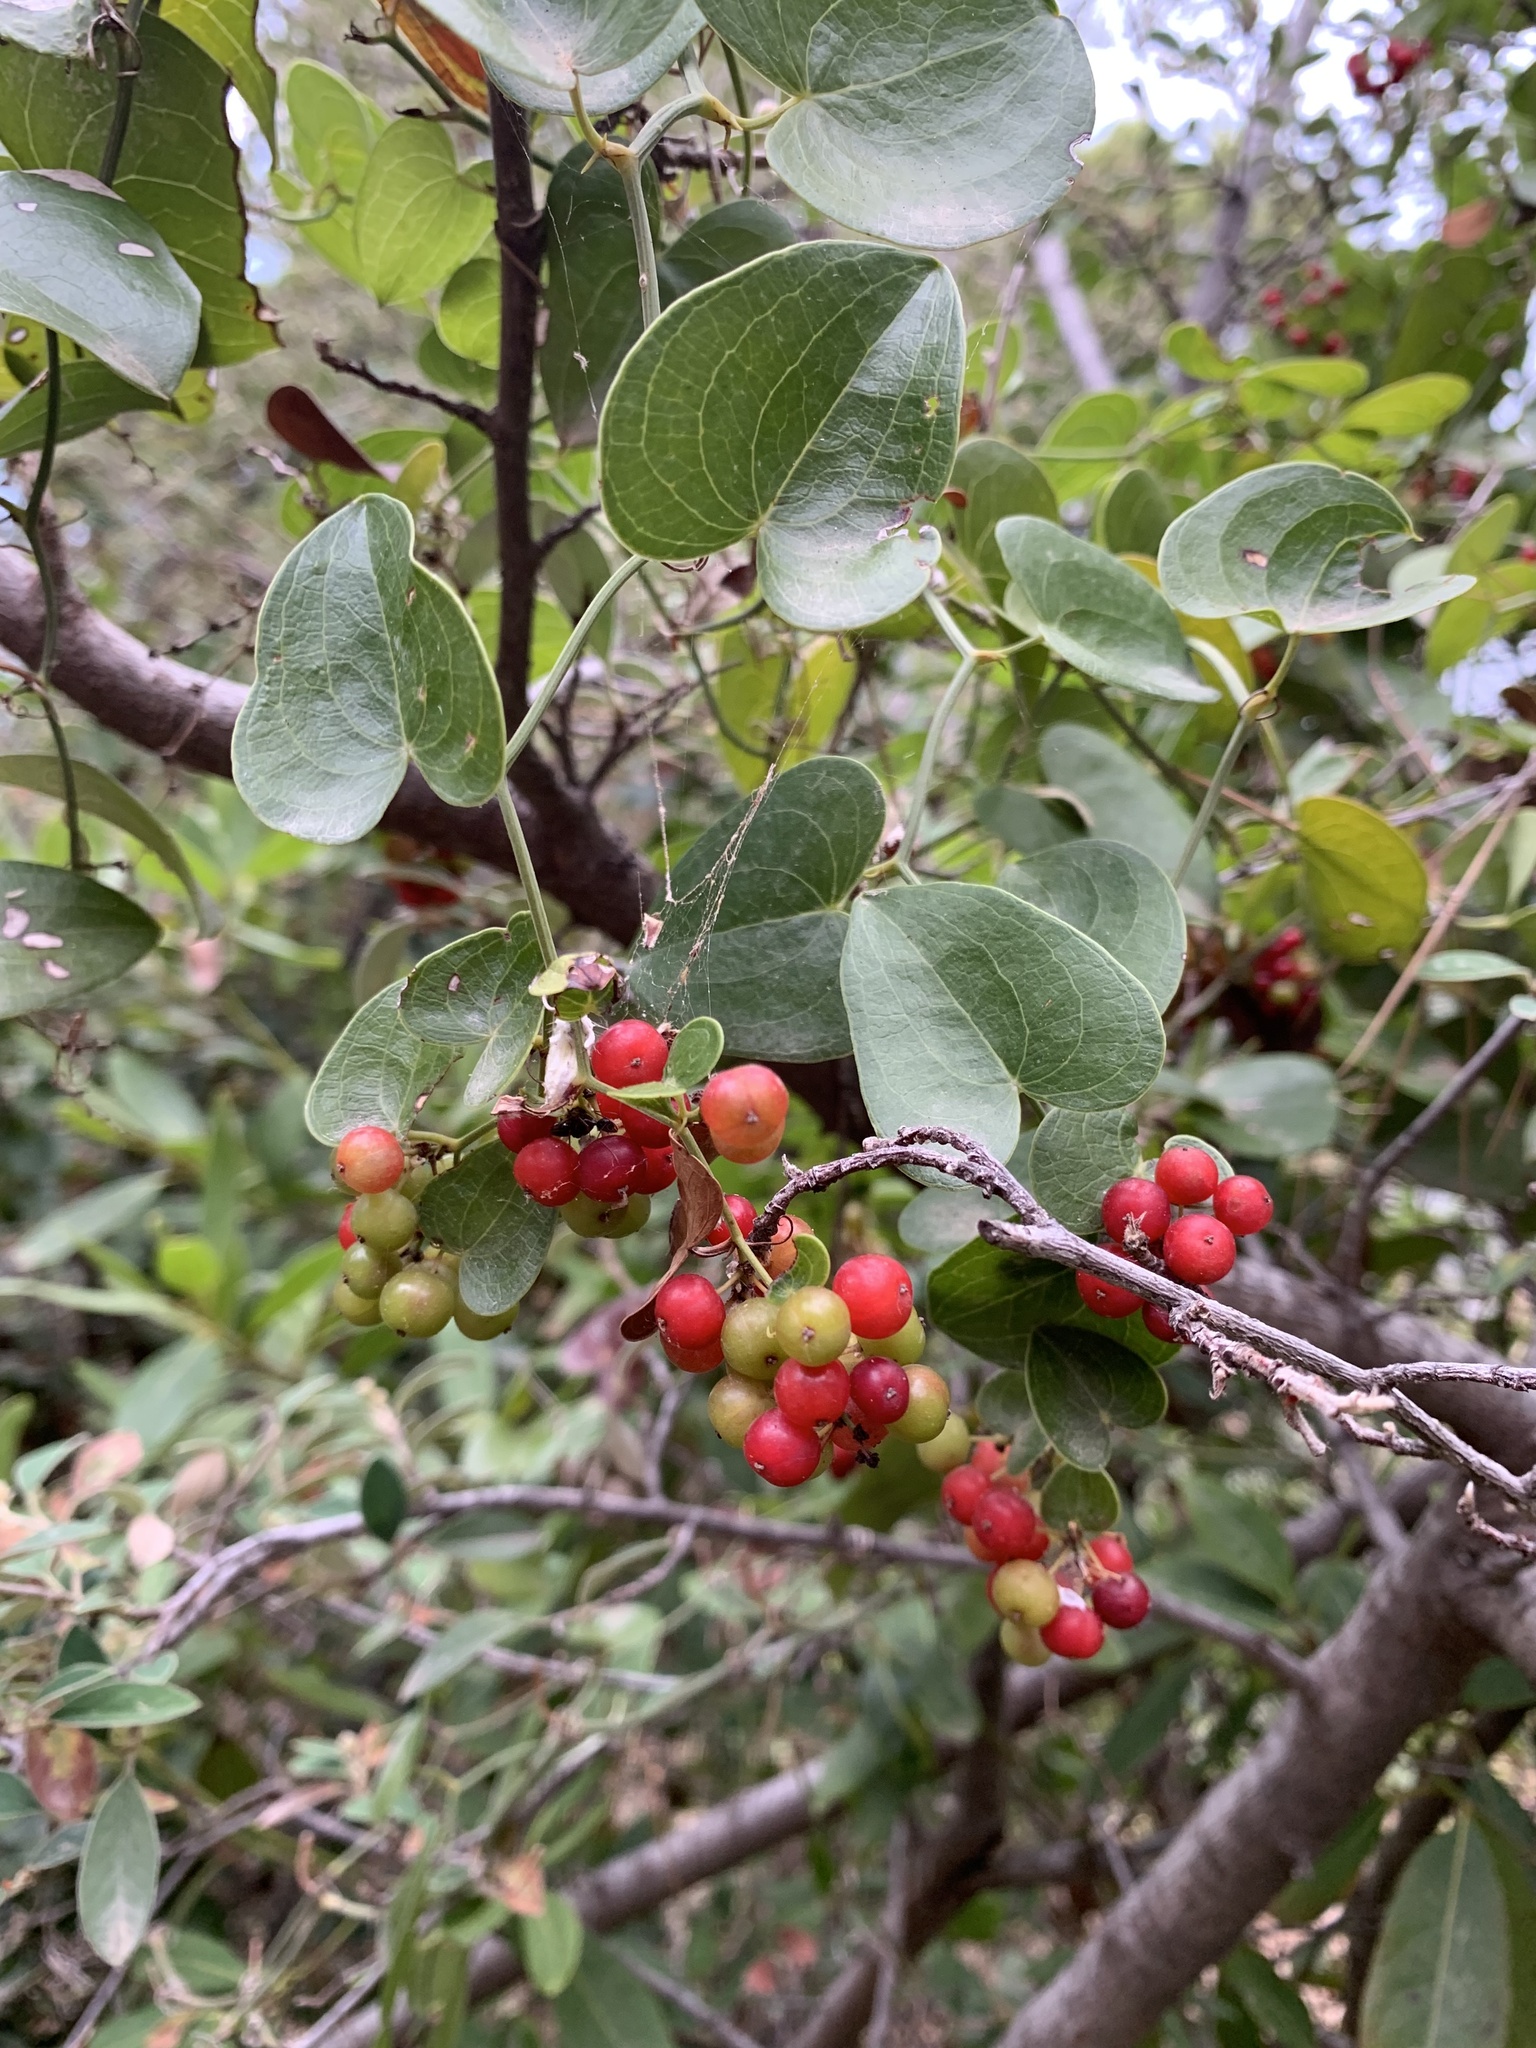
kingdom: Plantae
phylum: Tracheophyta
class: Liliopsida
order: Liliales
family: Smilacaceae
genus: Smilax
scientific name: Smilax aspera
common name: Common smilax
